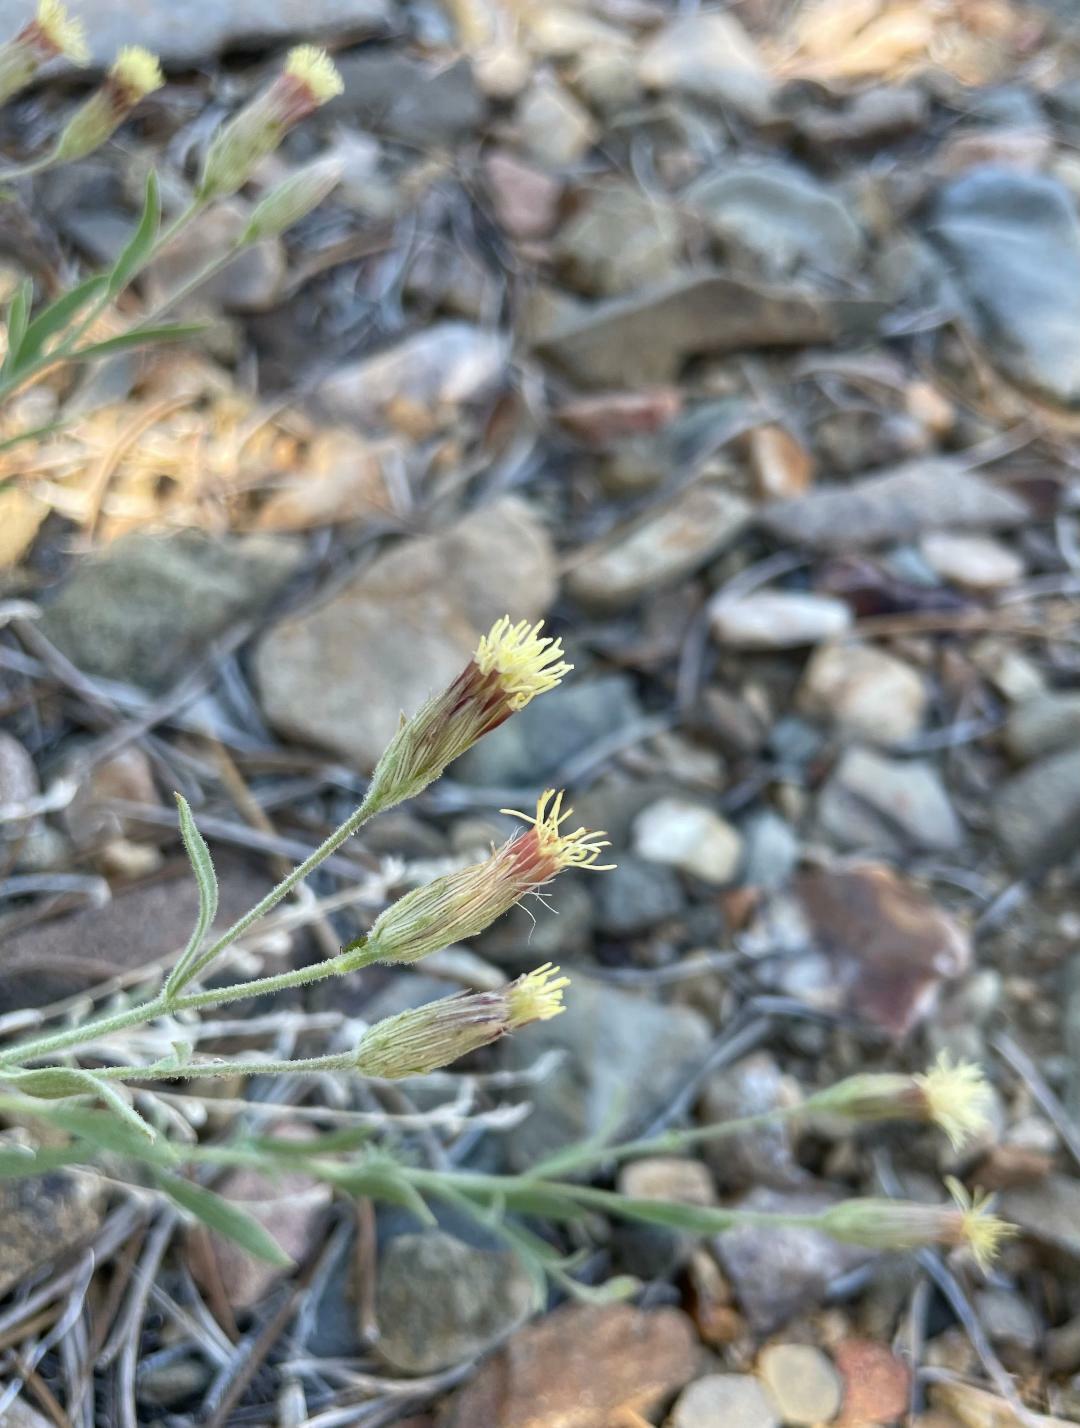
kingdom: Plantae
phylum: Tracheophyta
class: Magnoliopsida
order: Asterales
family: Asteraceae
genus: Brickellia
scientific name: Brickellia oblongifolia
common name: Mojave brickellbush
